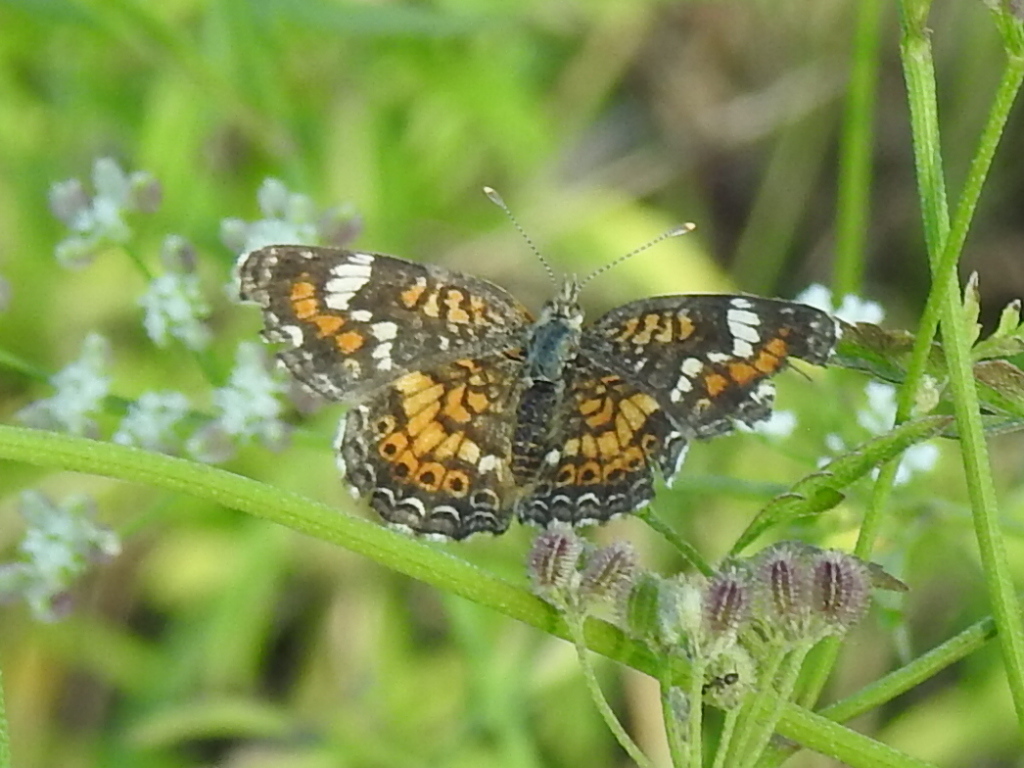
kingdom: Animalia
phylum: Arthropoda
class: Insecta
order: Lepidoptera
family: Nymphalidae
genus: Phyciodes
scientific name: Phyciodes phaon
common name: Phaon crescent
